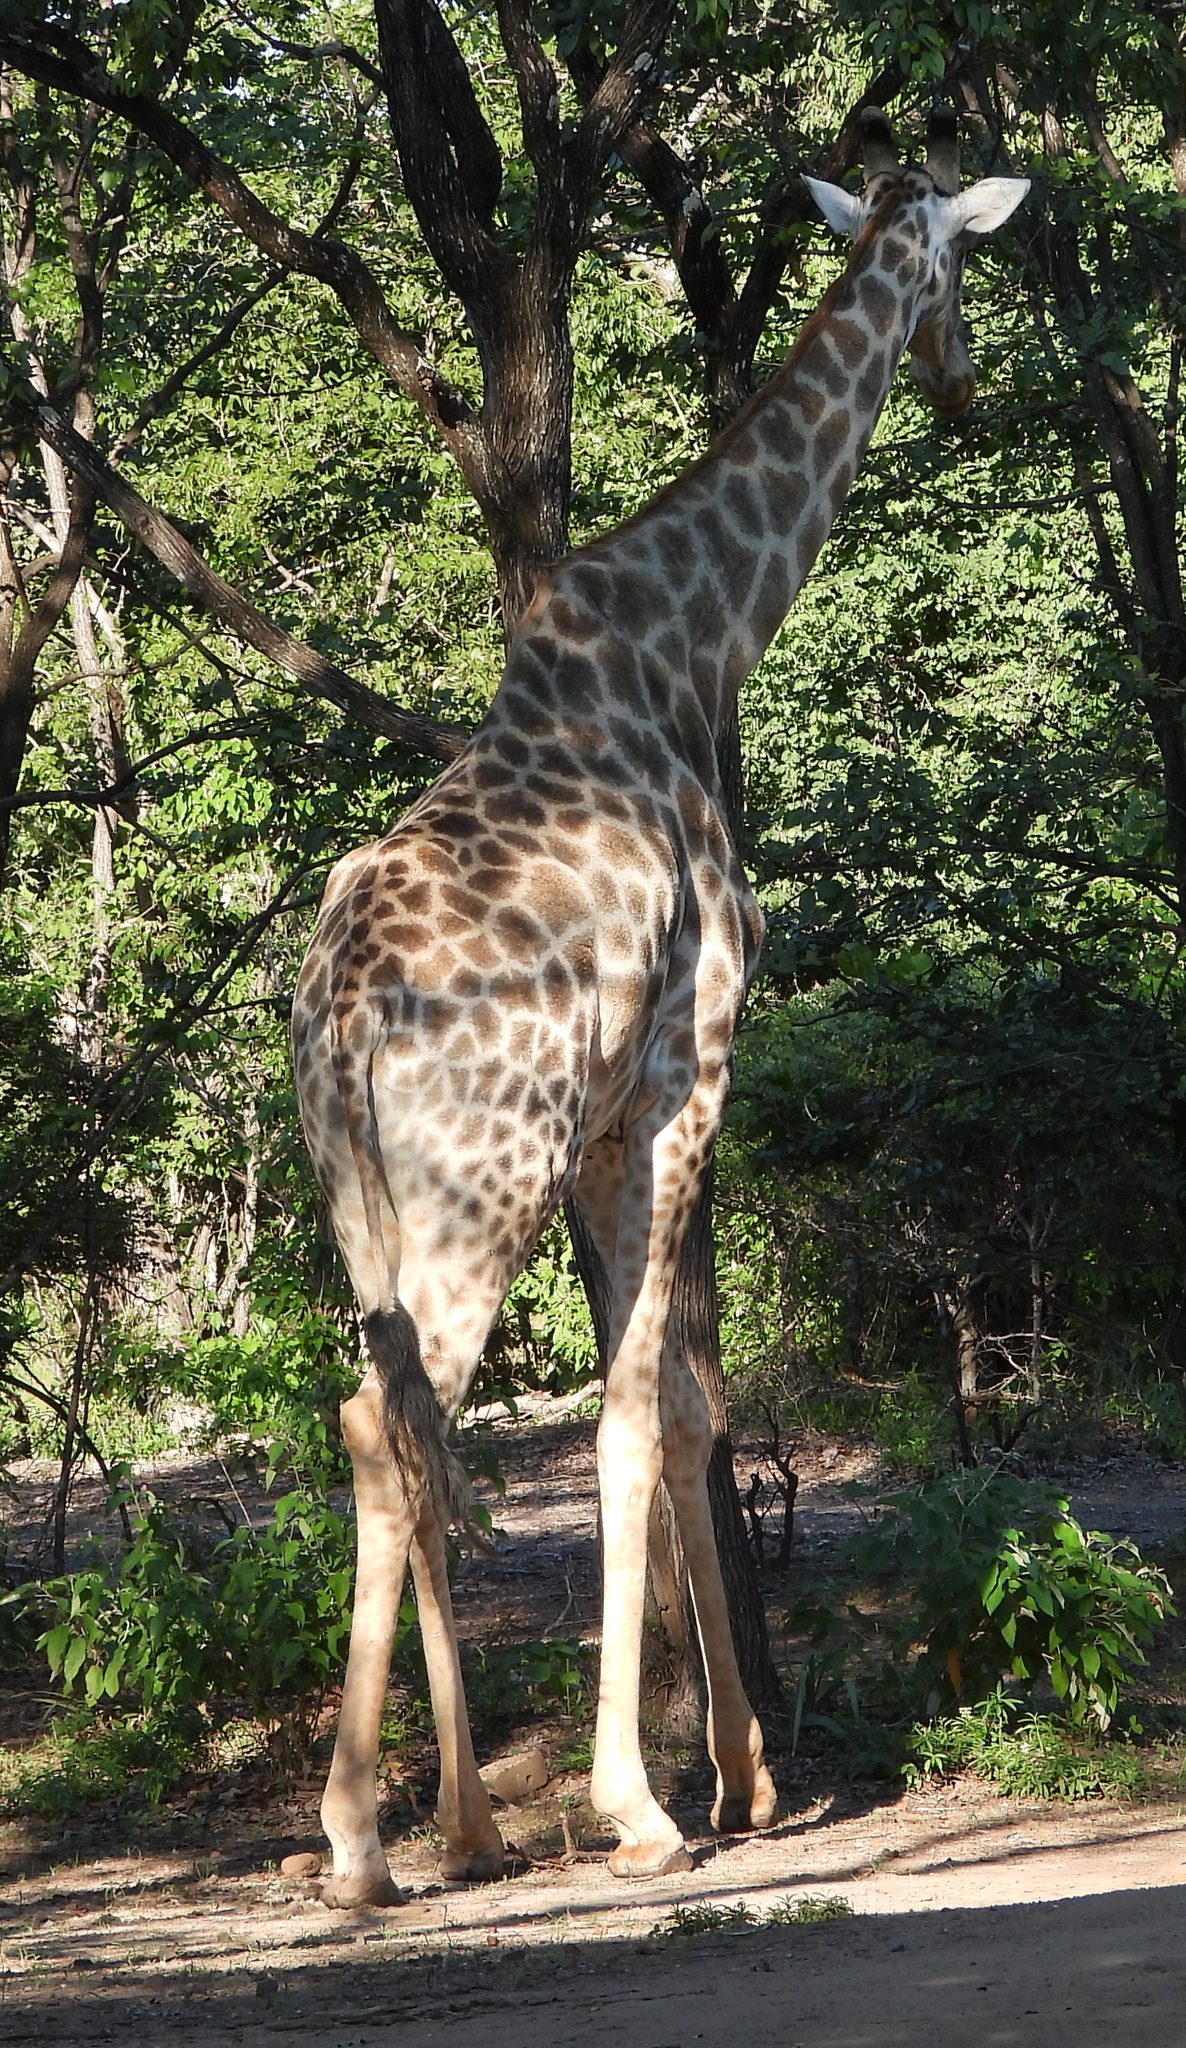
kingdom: Animalia
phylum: Chordata
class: Mammalia
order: Artiodactyla
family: Giraffidae
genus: Giraffa
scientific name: Giraffa giraffa
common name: Southern giraffe
